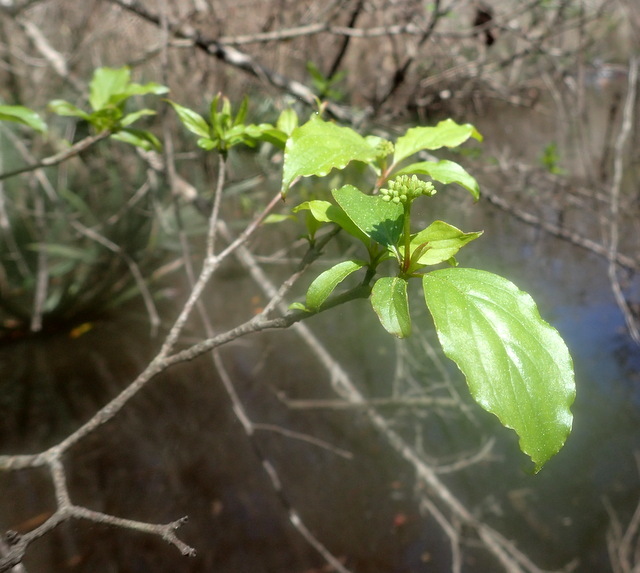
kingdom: Plantae
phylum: Tracheophyta
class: Magnoliopsida
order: Cornales
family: Cornaceae
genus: Cornus
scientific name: Cornus foemina
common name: Swamp dogwood
